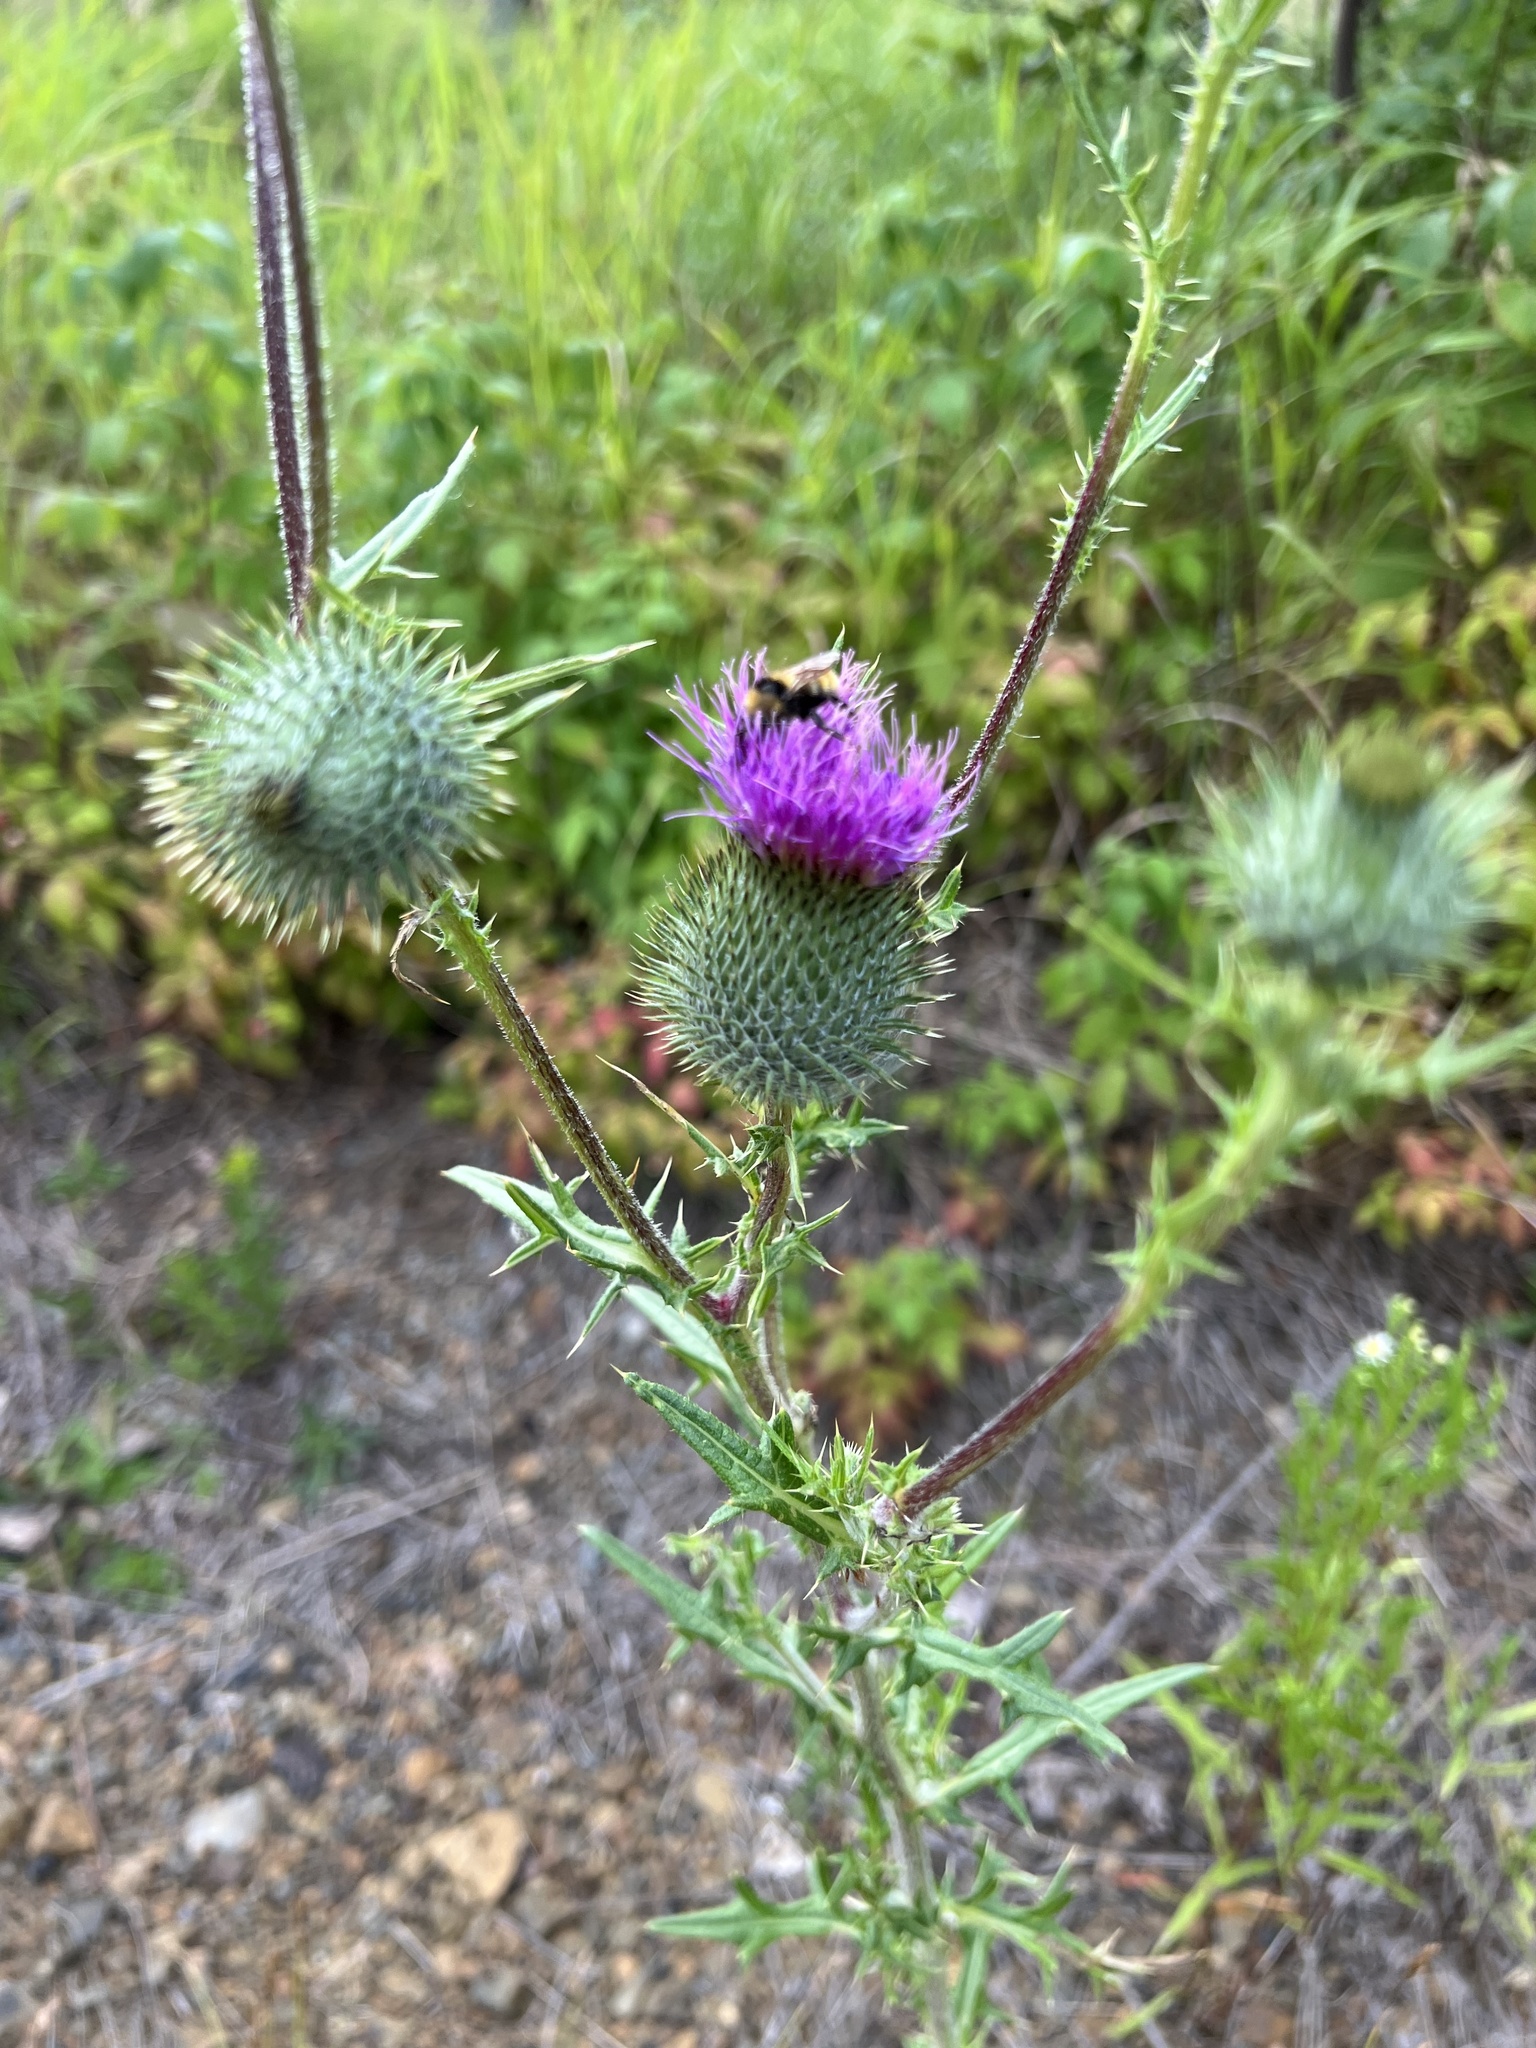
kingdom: Plantae
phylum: Tracheophyta
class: Magnoliopsida
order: Asterales
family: Asteraceae
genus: Cirsium
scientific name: Cirsium vulgare
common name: Bull thistle
